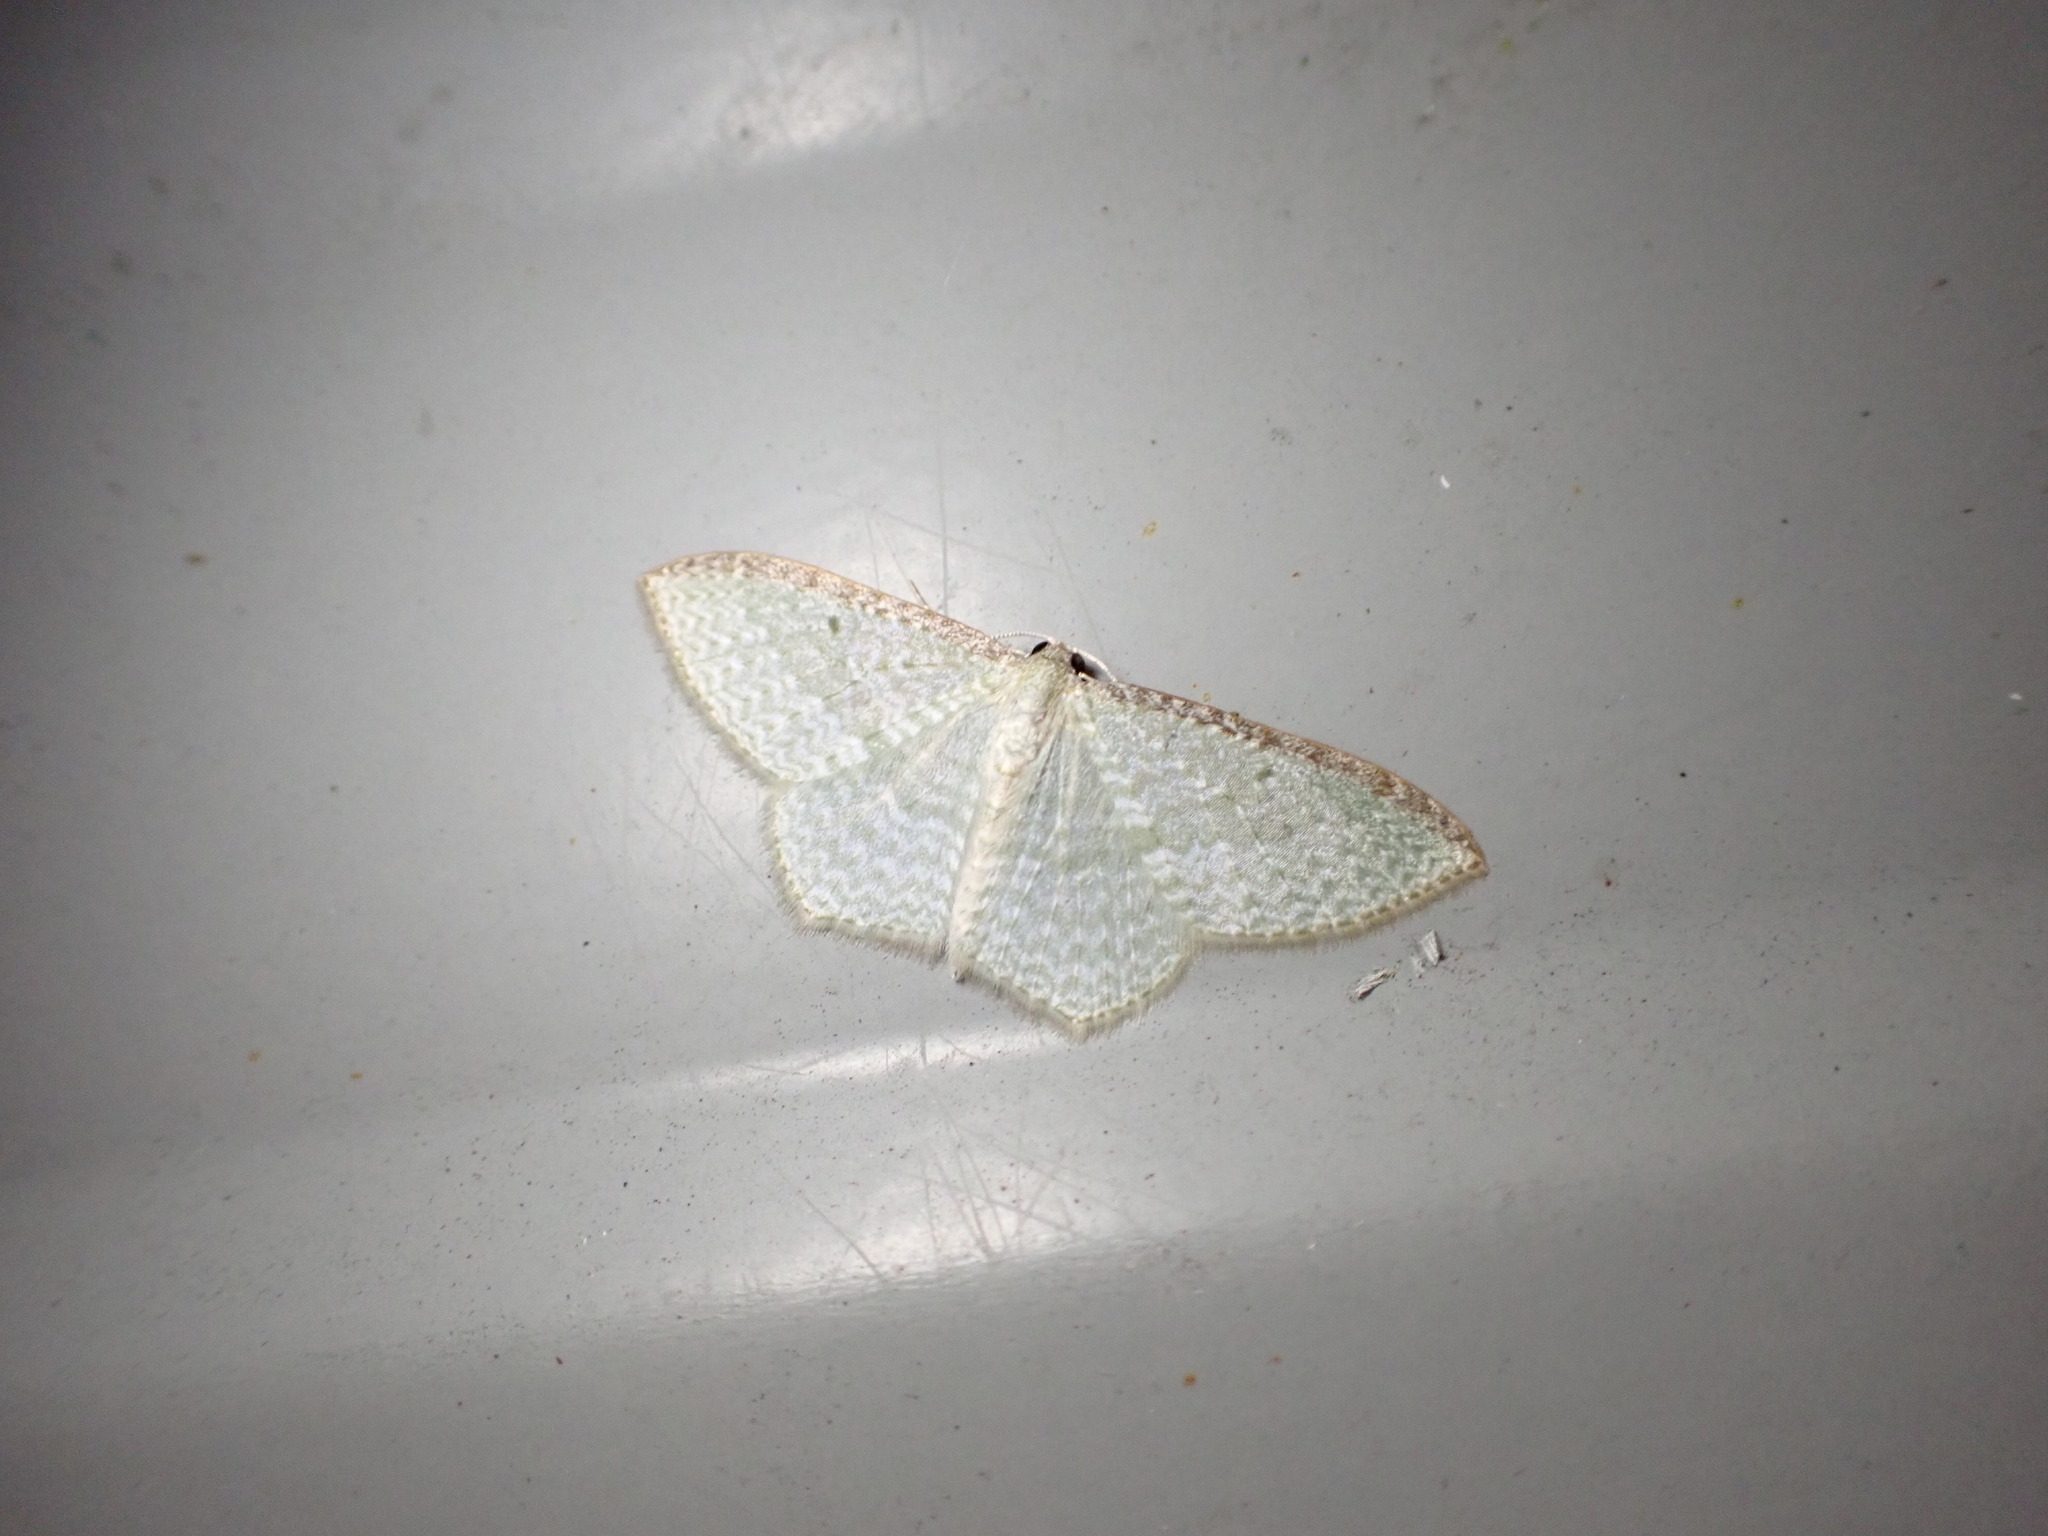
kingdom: Animalia
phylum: Arthropoda
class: Insecta
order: Lepidoptera
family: Geometridae
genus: Poecilasthena
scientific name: Poecilasthena pulchraria
